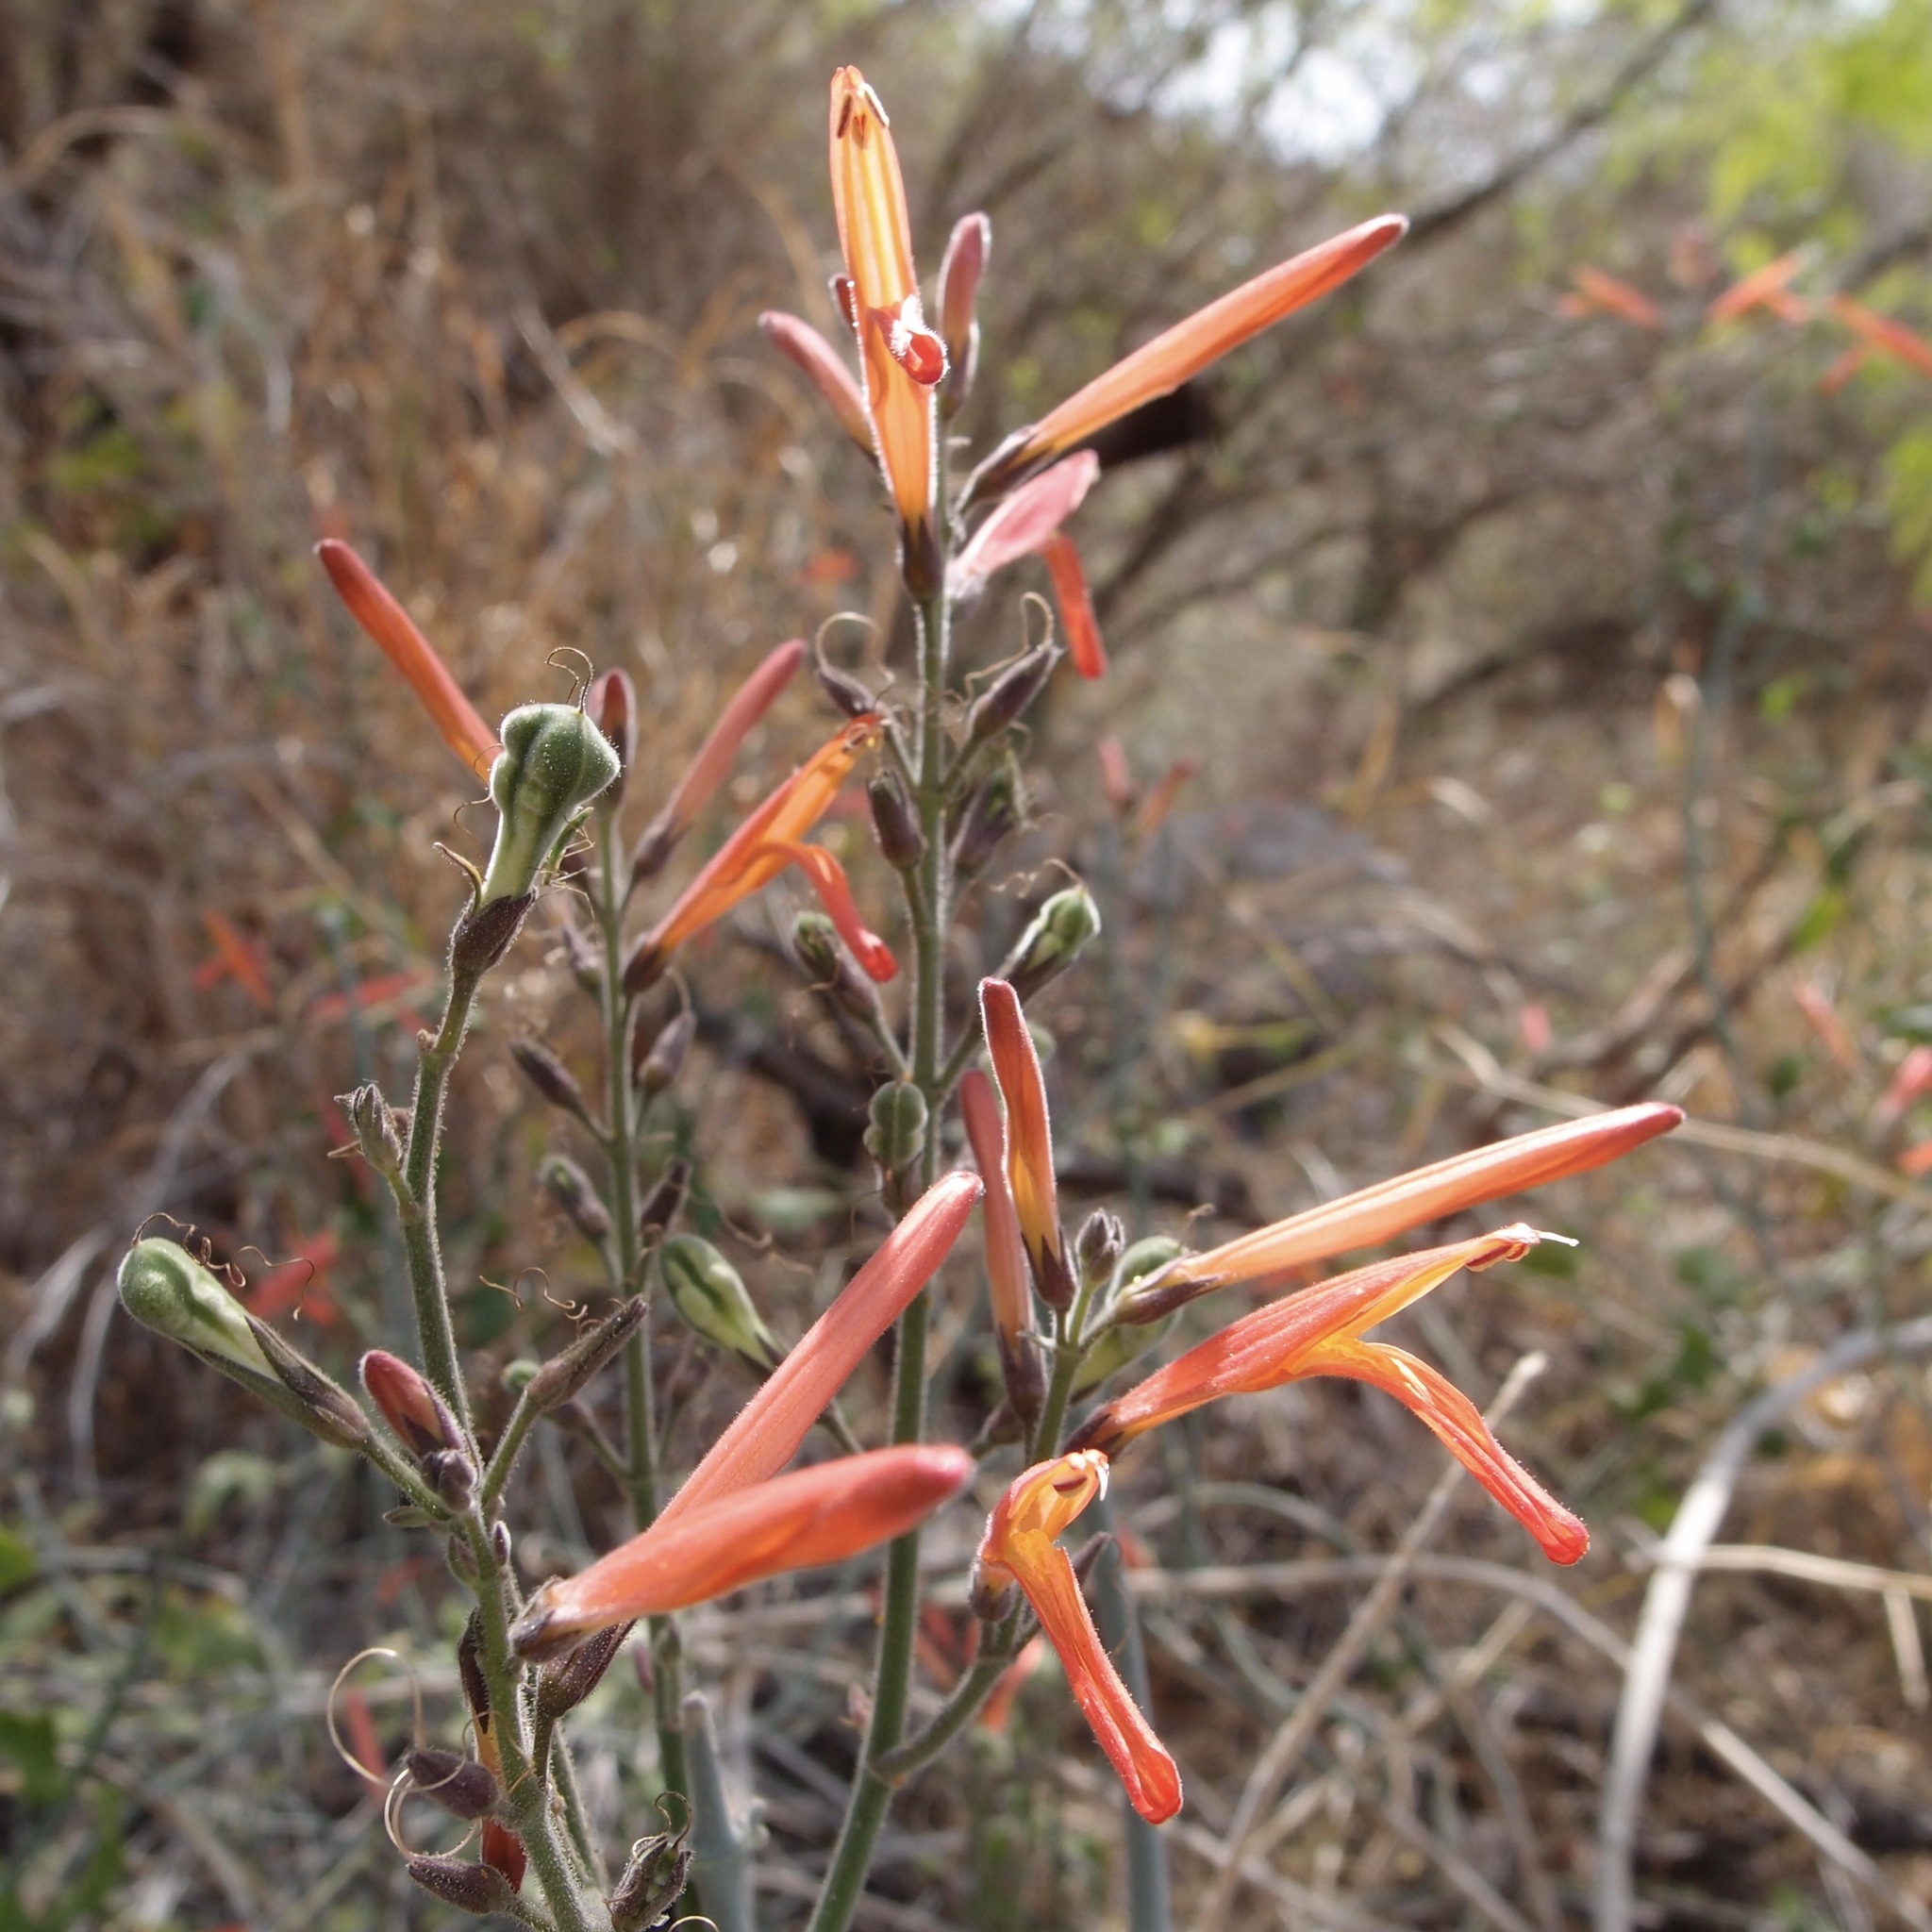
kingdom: Plantae
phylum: Tracheophyta
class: Magnoliopsida
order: Lamiales
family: Acanthaceae
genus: Justicia
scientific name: Justicia californica
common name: Chuparosa-honeysuckle
